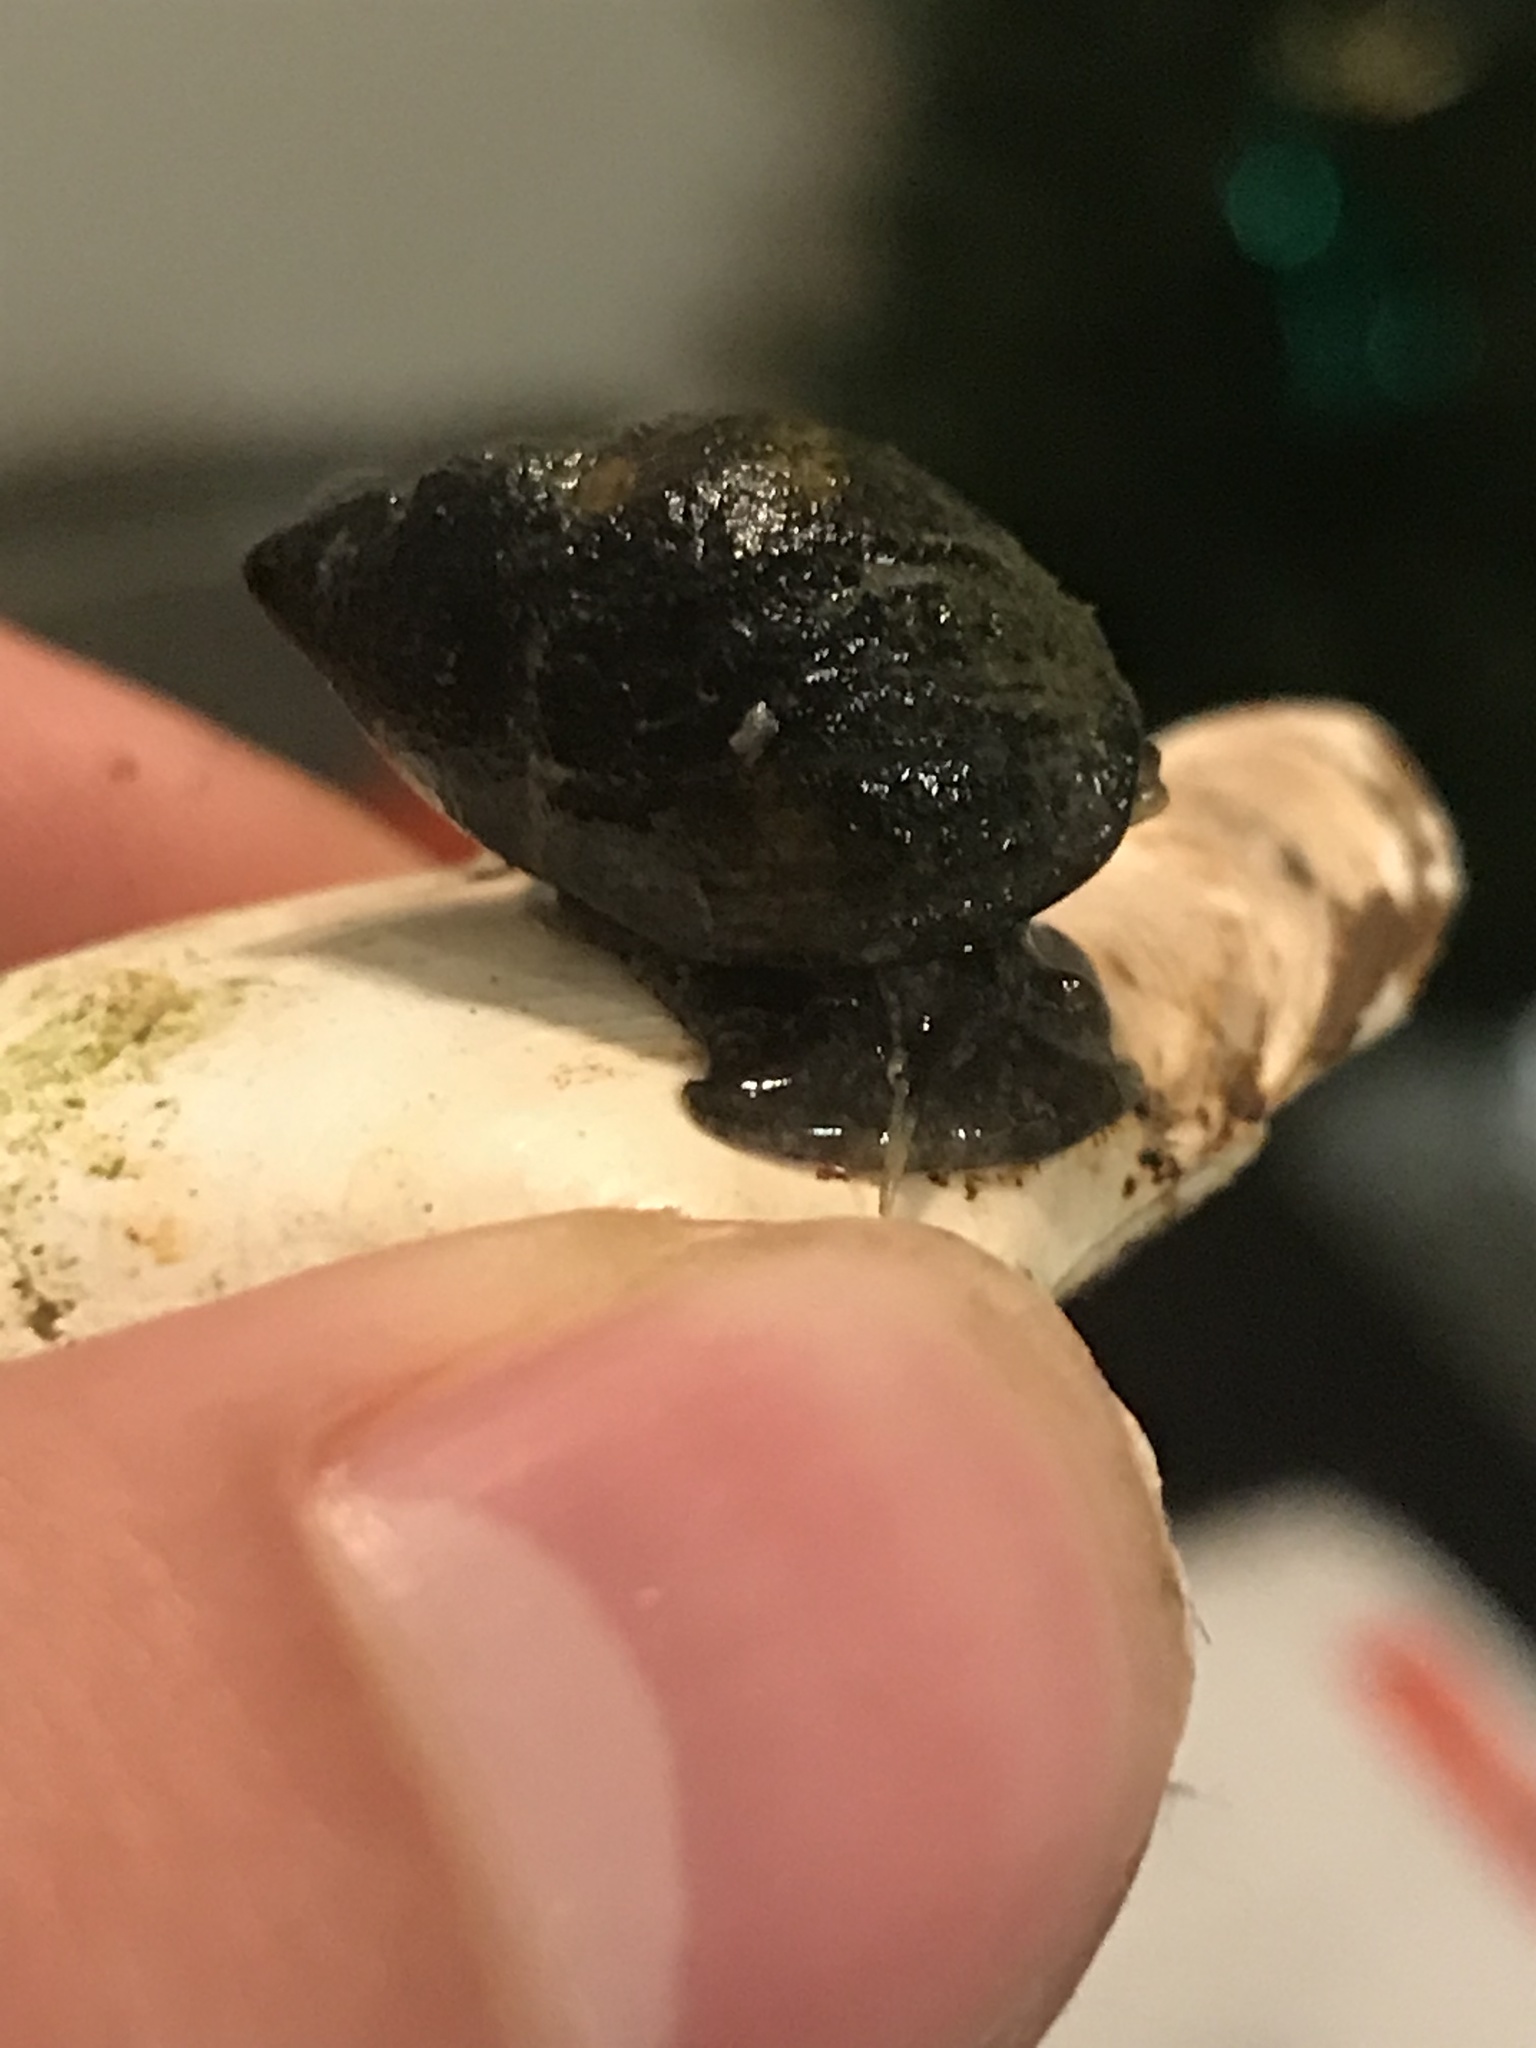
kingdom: Animalia
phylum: Mollusca
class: Gastropoda
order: Neogastropoda
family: Nassariidae
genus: Ilyanassa
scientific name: Ilyanassa obsoleta
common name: Eastern mudsnail
